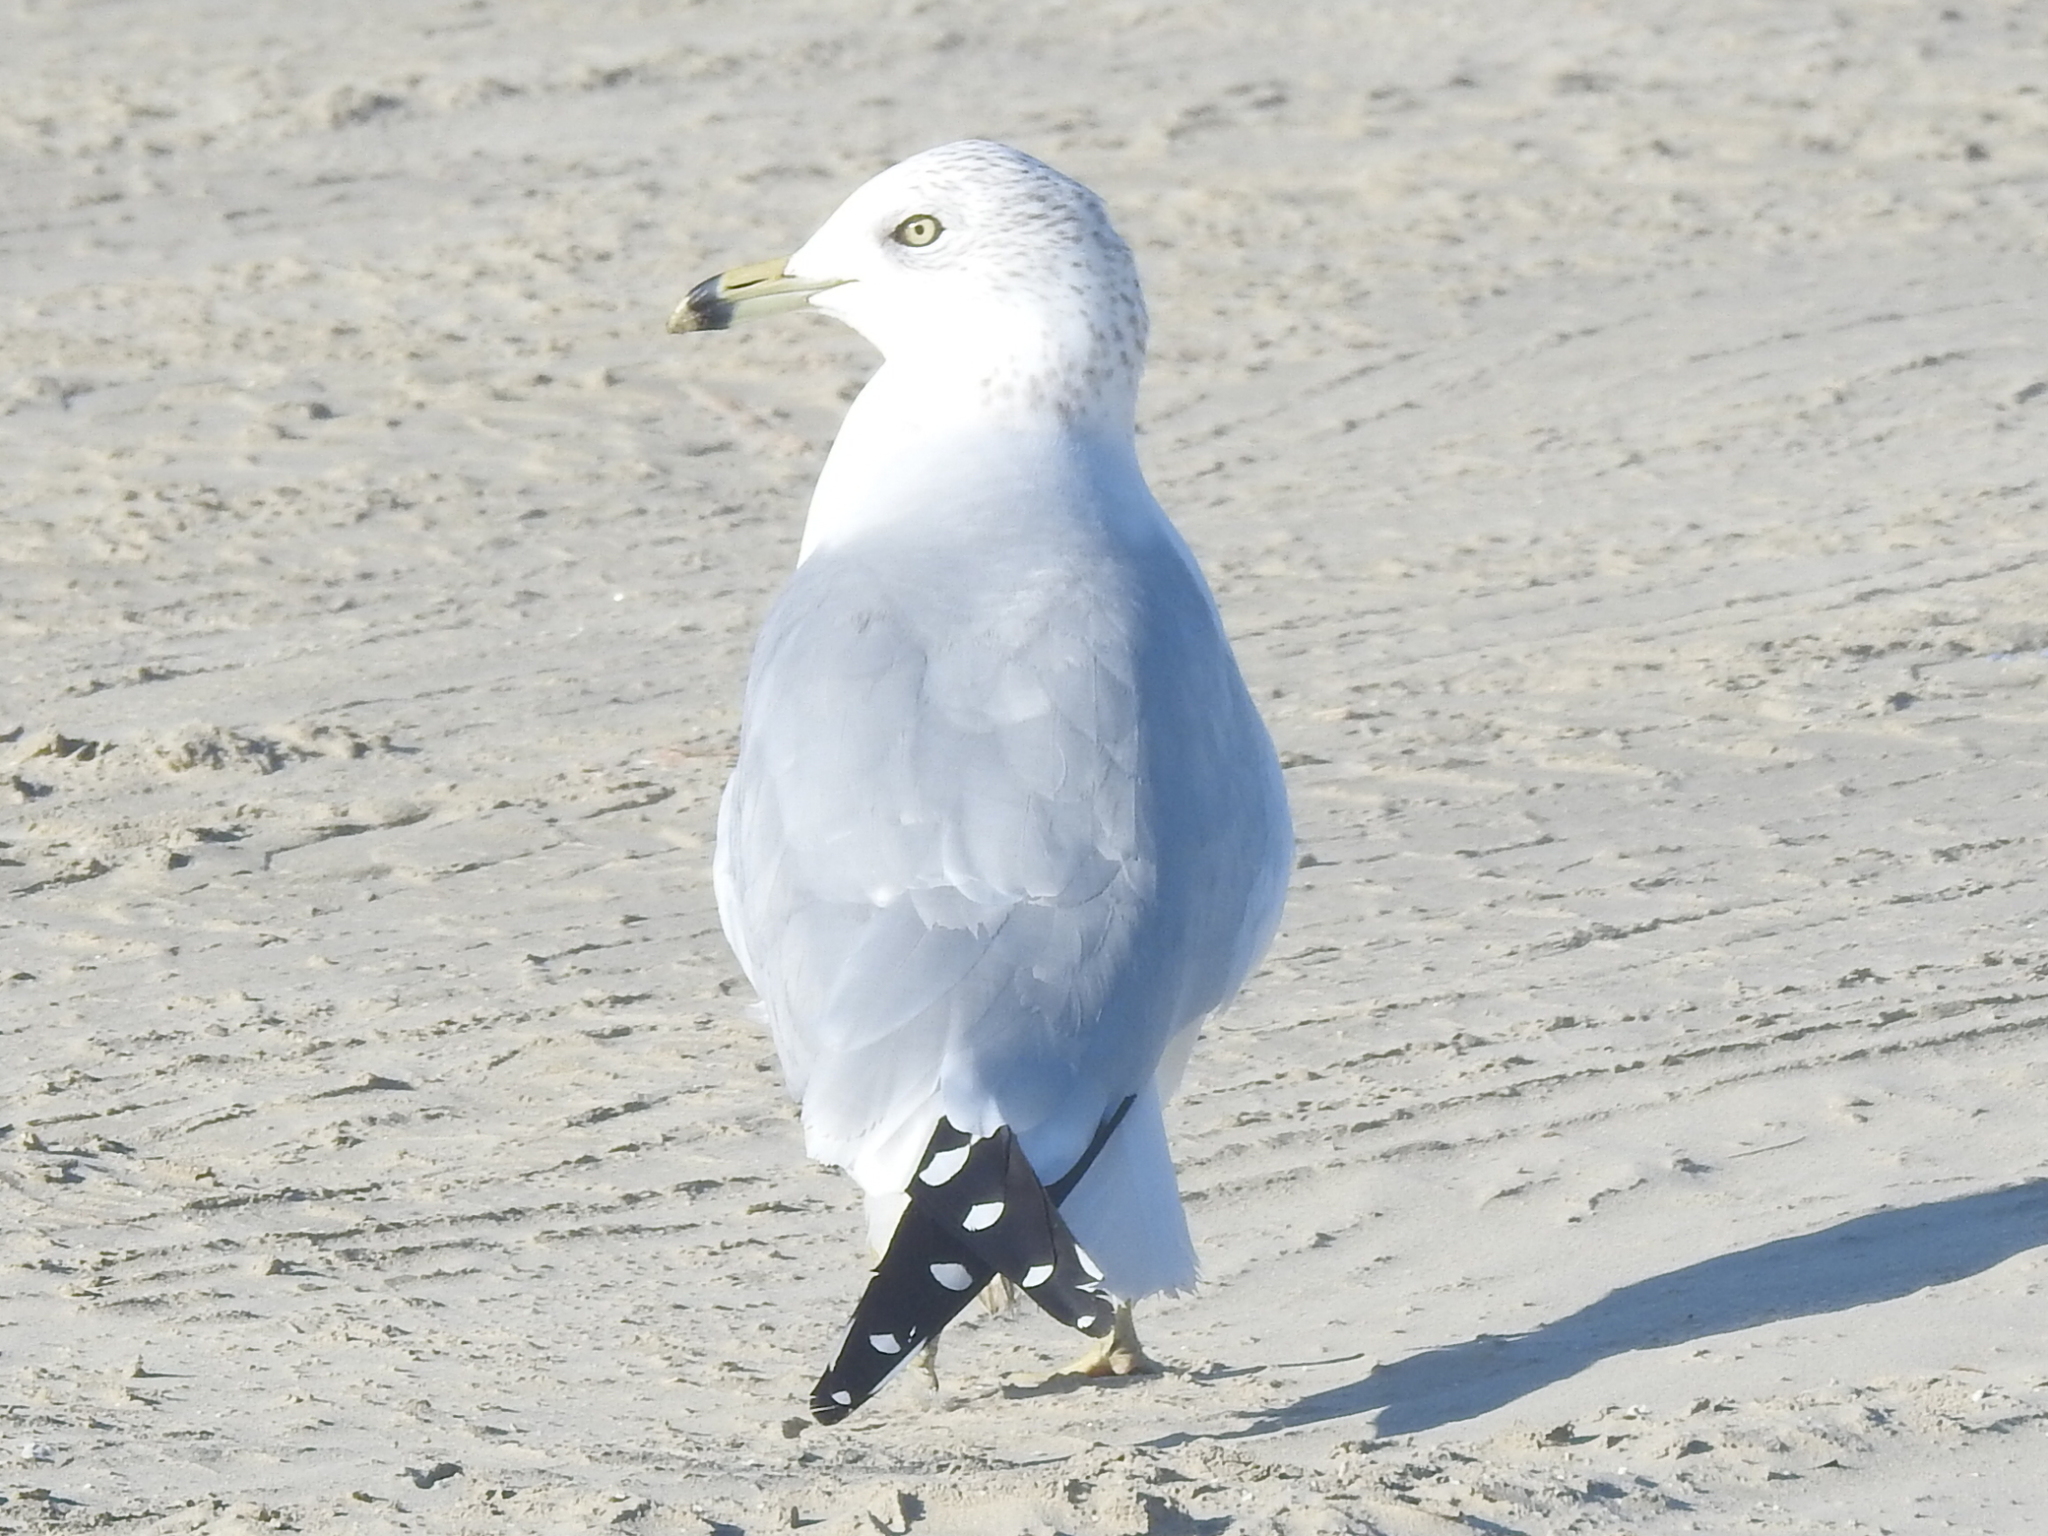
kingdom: Animalia
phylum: Chordata
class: Aves
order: Charadriiformes
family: Laridae
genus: Larus
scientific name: Larus delawarensis
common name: Ring-billed gull
